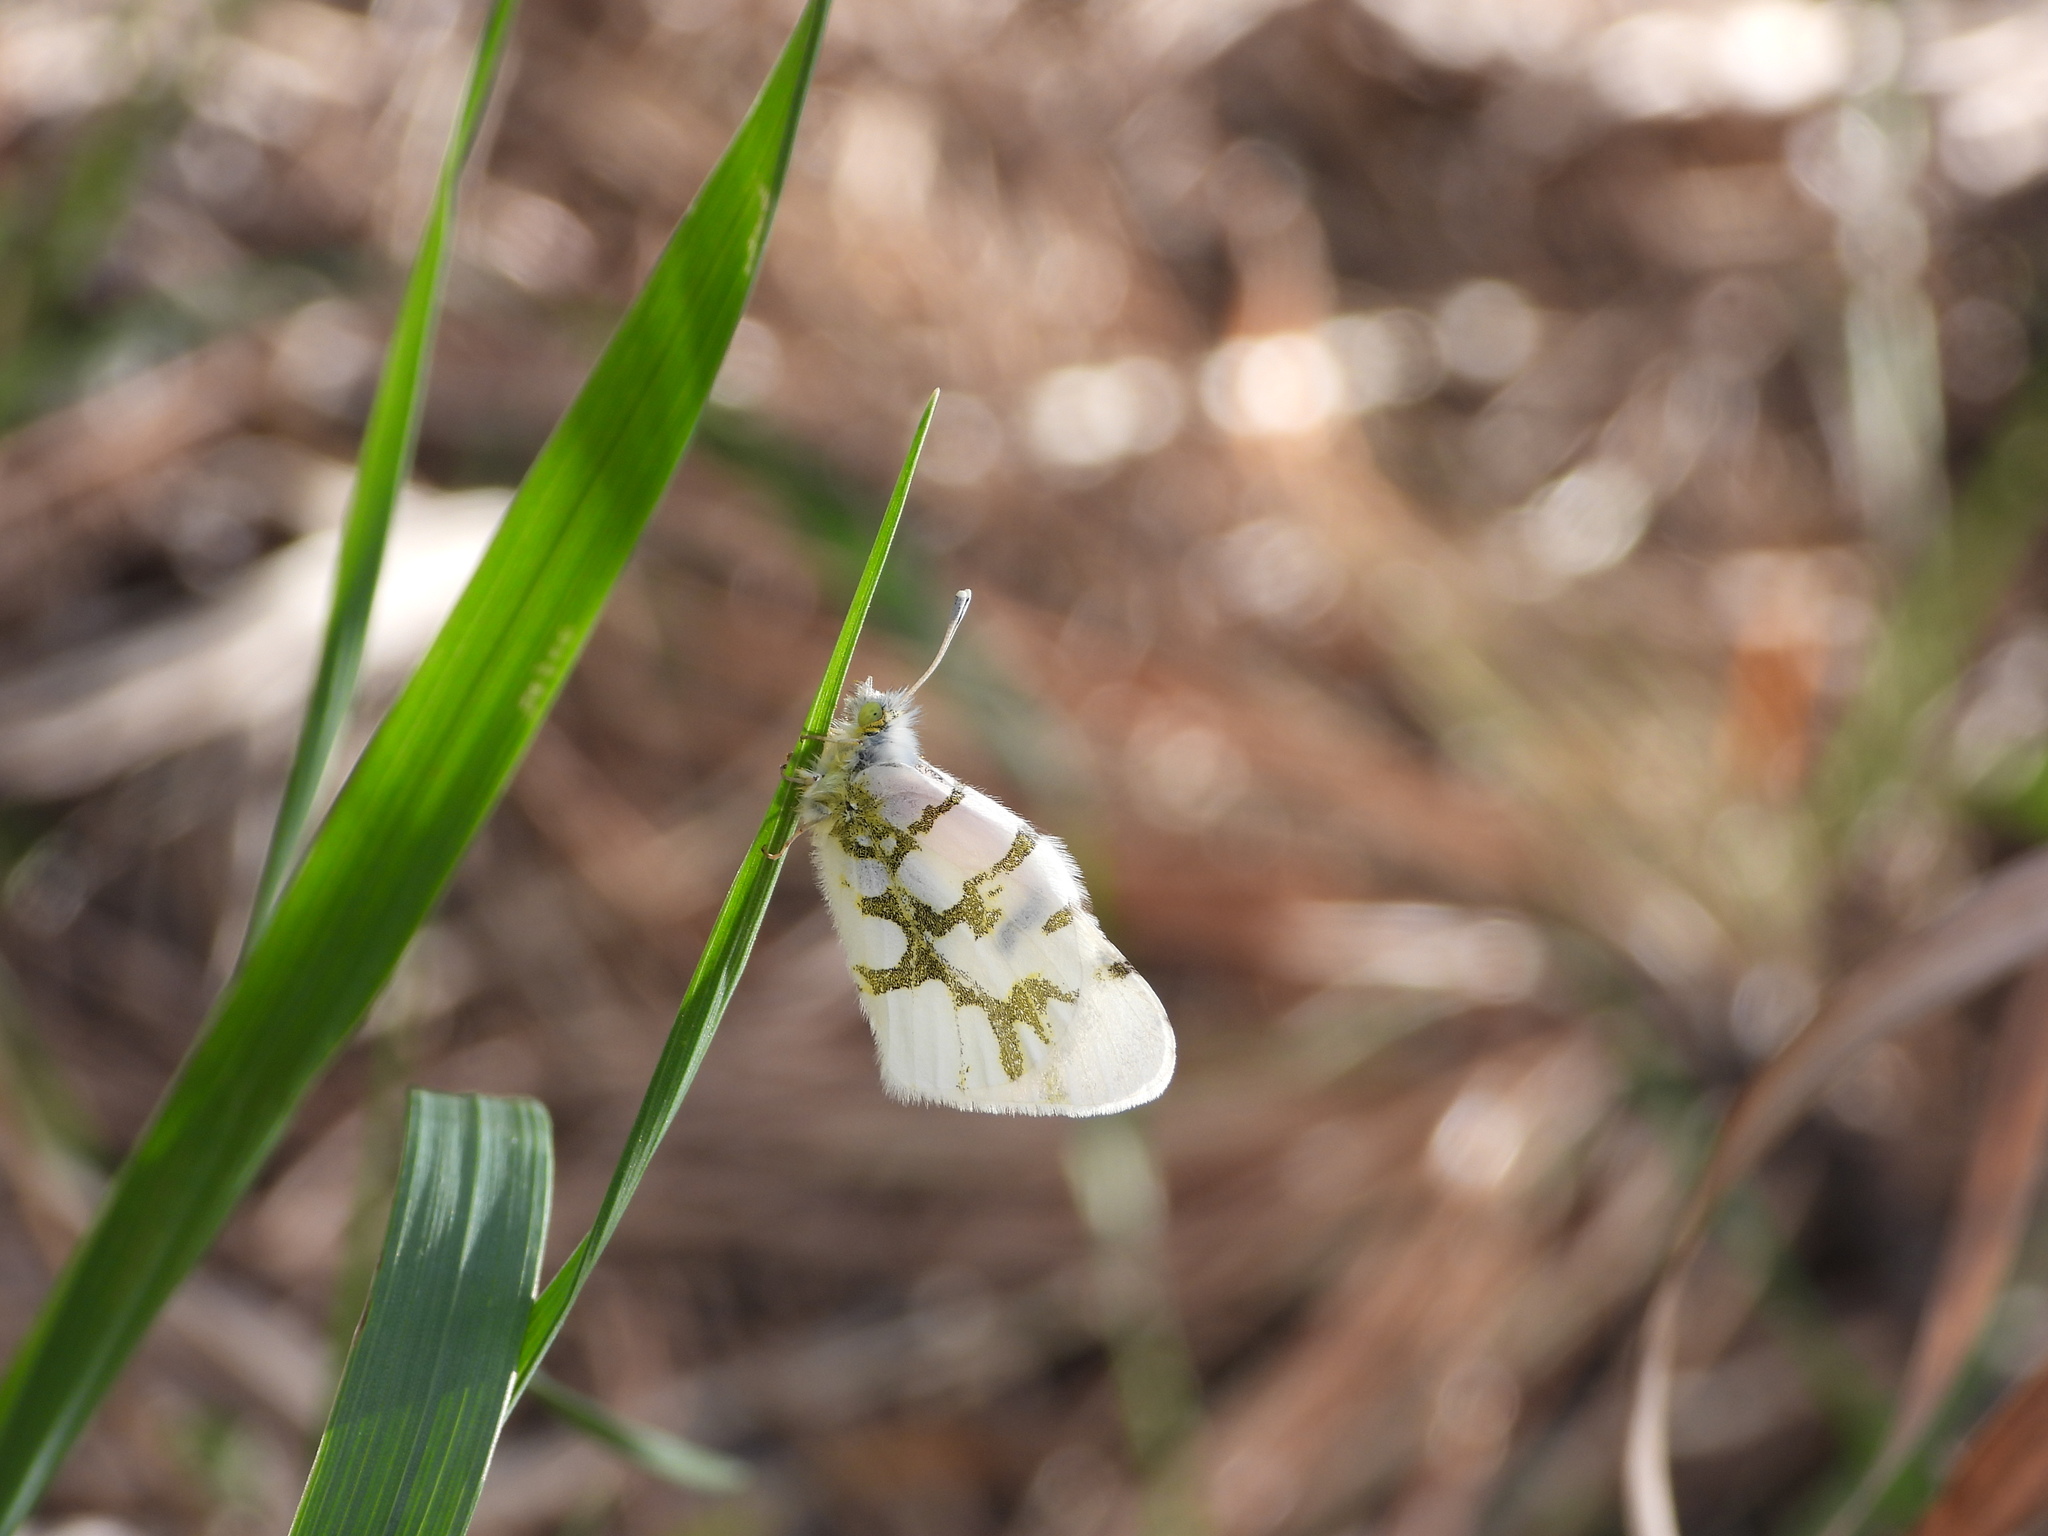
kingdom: Animalia
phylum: Arthropoda
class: Insecta
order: Lepidoptera
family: Pieridae
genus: Euchloe
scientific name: Euchloe olympia
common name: Olympia
